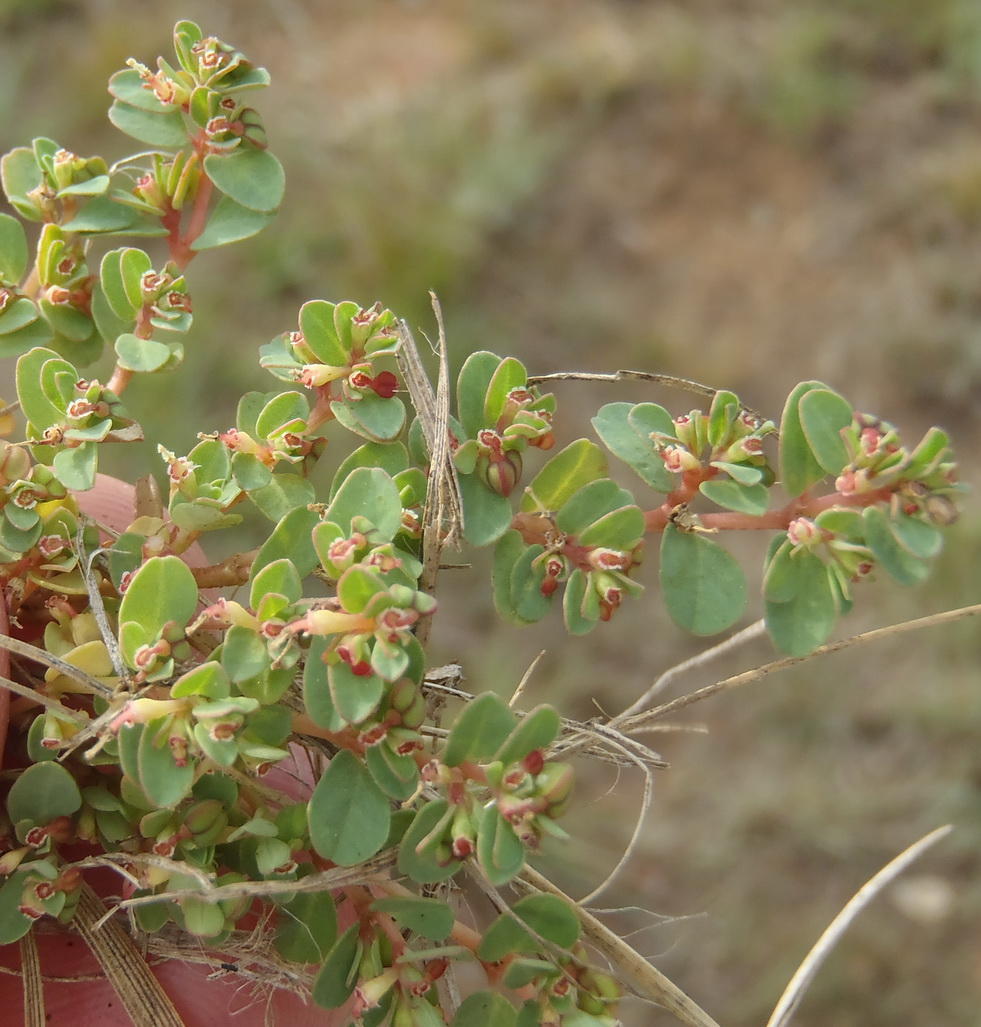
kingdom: Plantae
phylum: Tracheophyta
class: Magnoliopsida
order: Malpighiales
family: Euphorbiaceae
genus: Euphorbia
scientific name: Euphorbia inaequilatera
